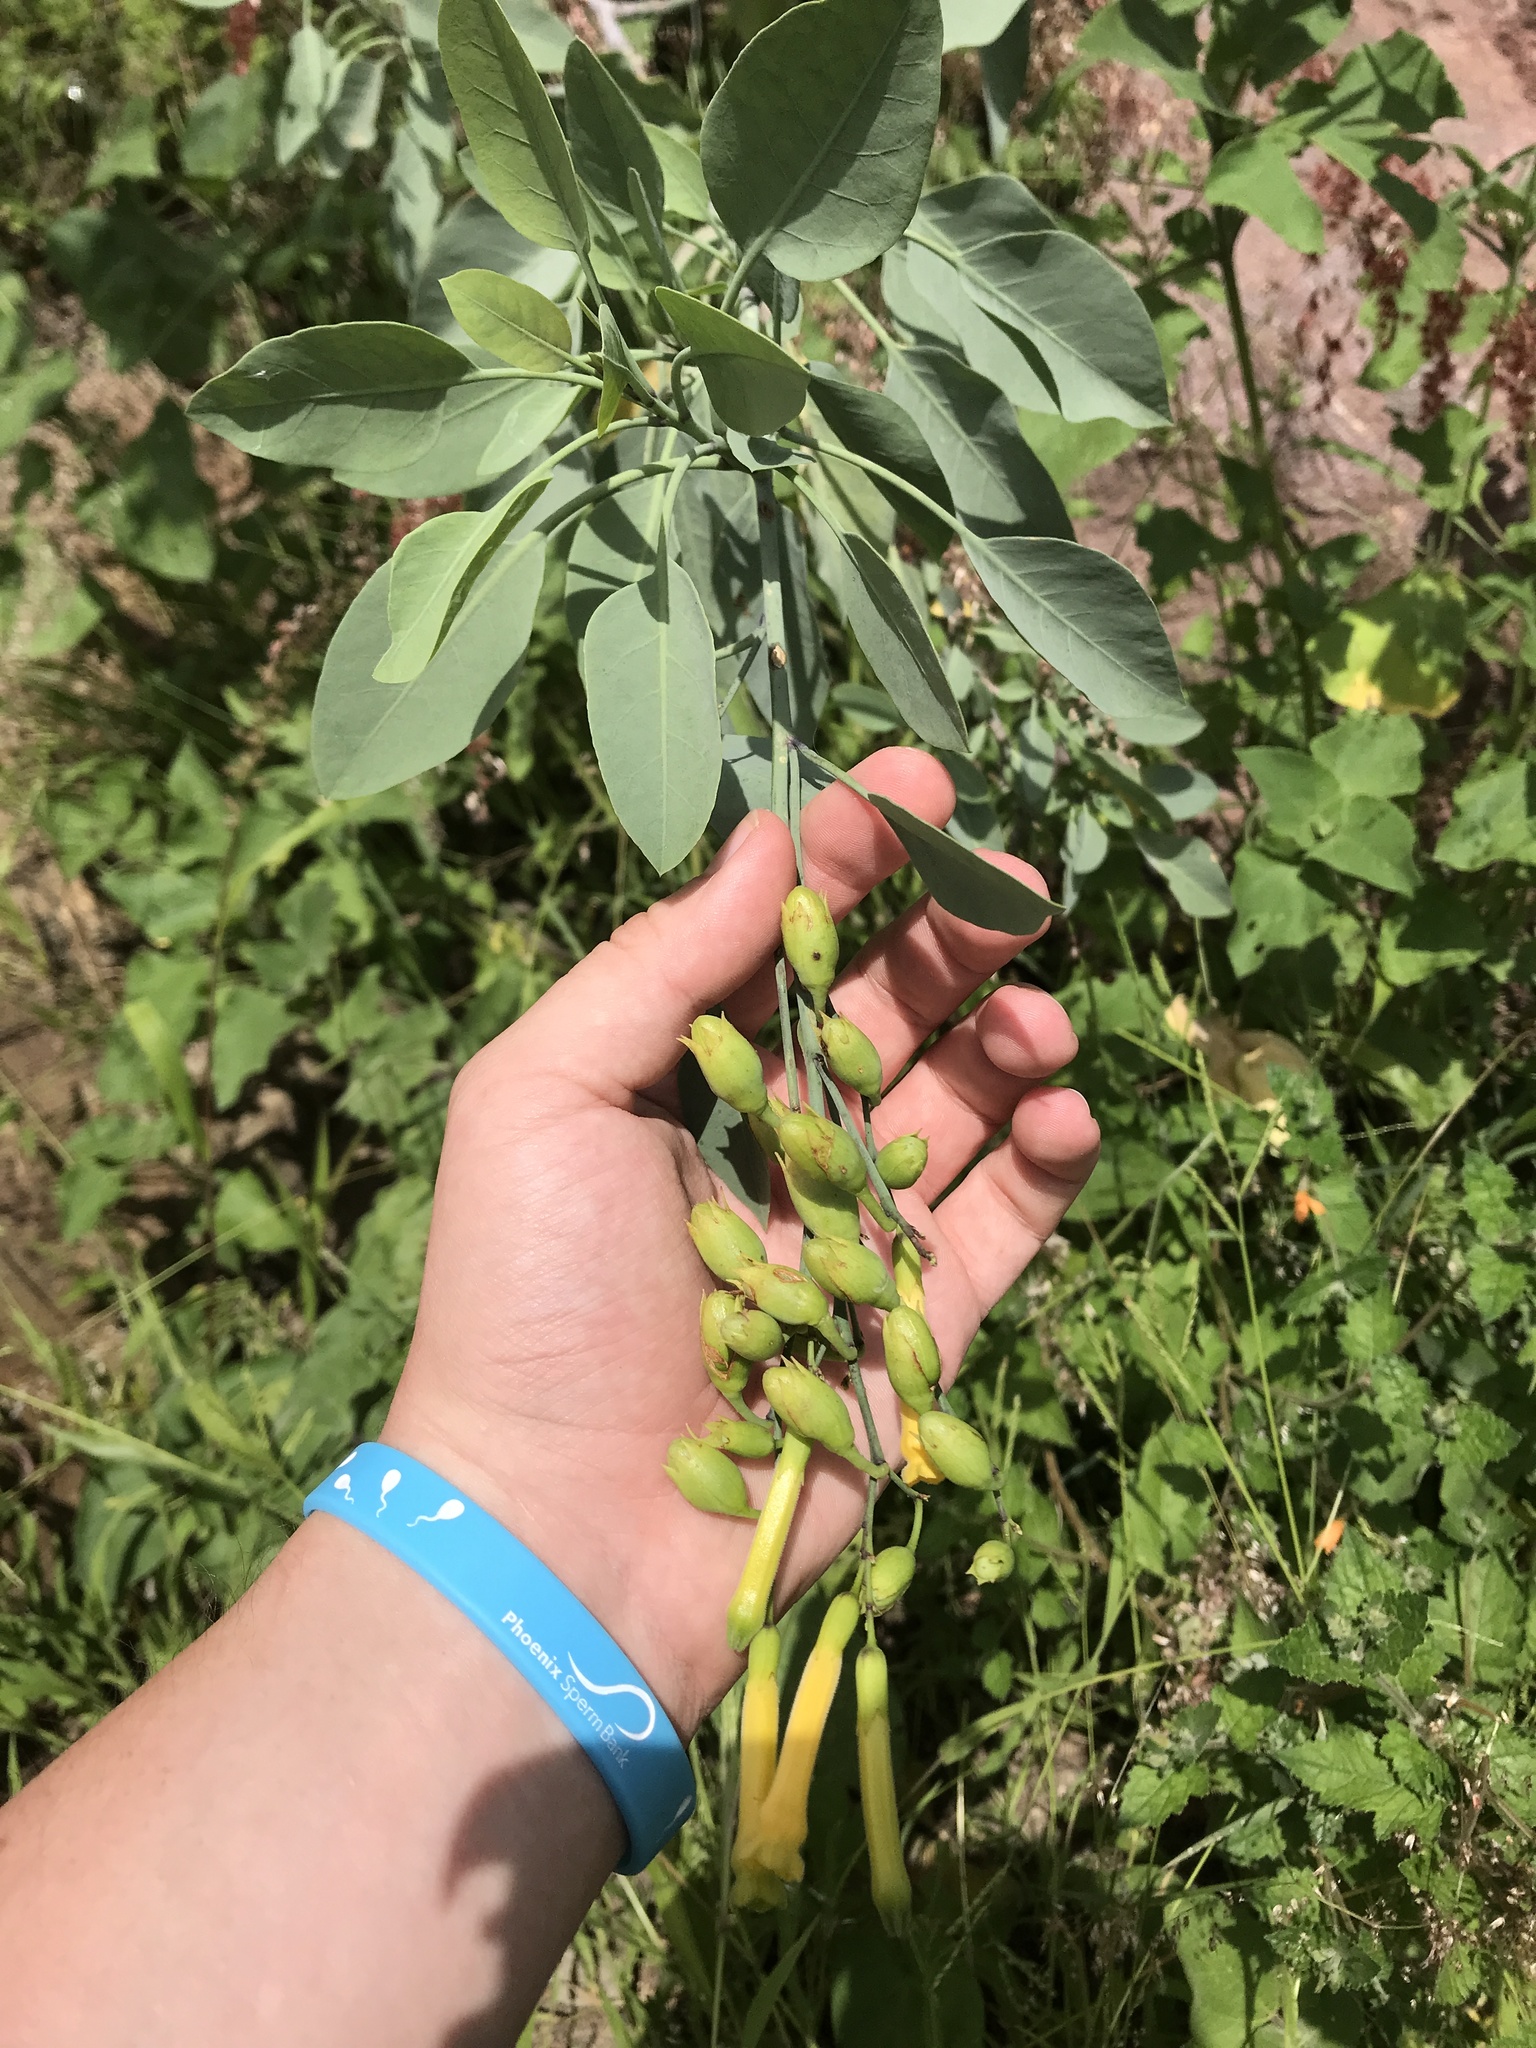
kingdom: Plantae
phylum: Tracheophyta
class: Magnoliopsida
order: Solanales
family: Solanaceae
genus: Nicotiana
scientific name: Nicotiana glauca
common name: Tree tobacco
